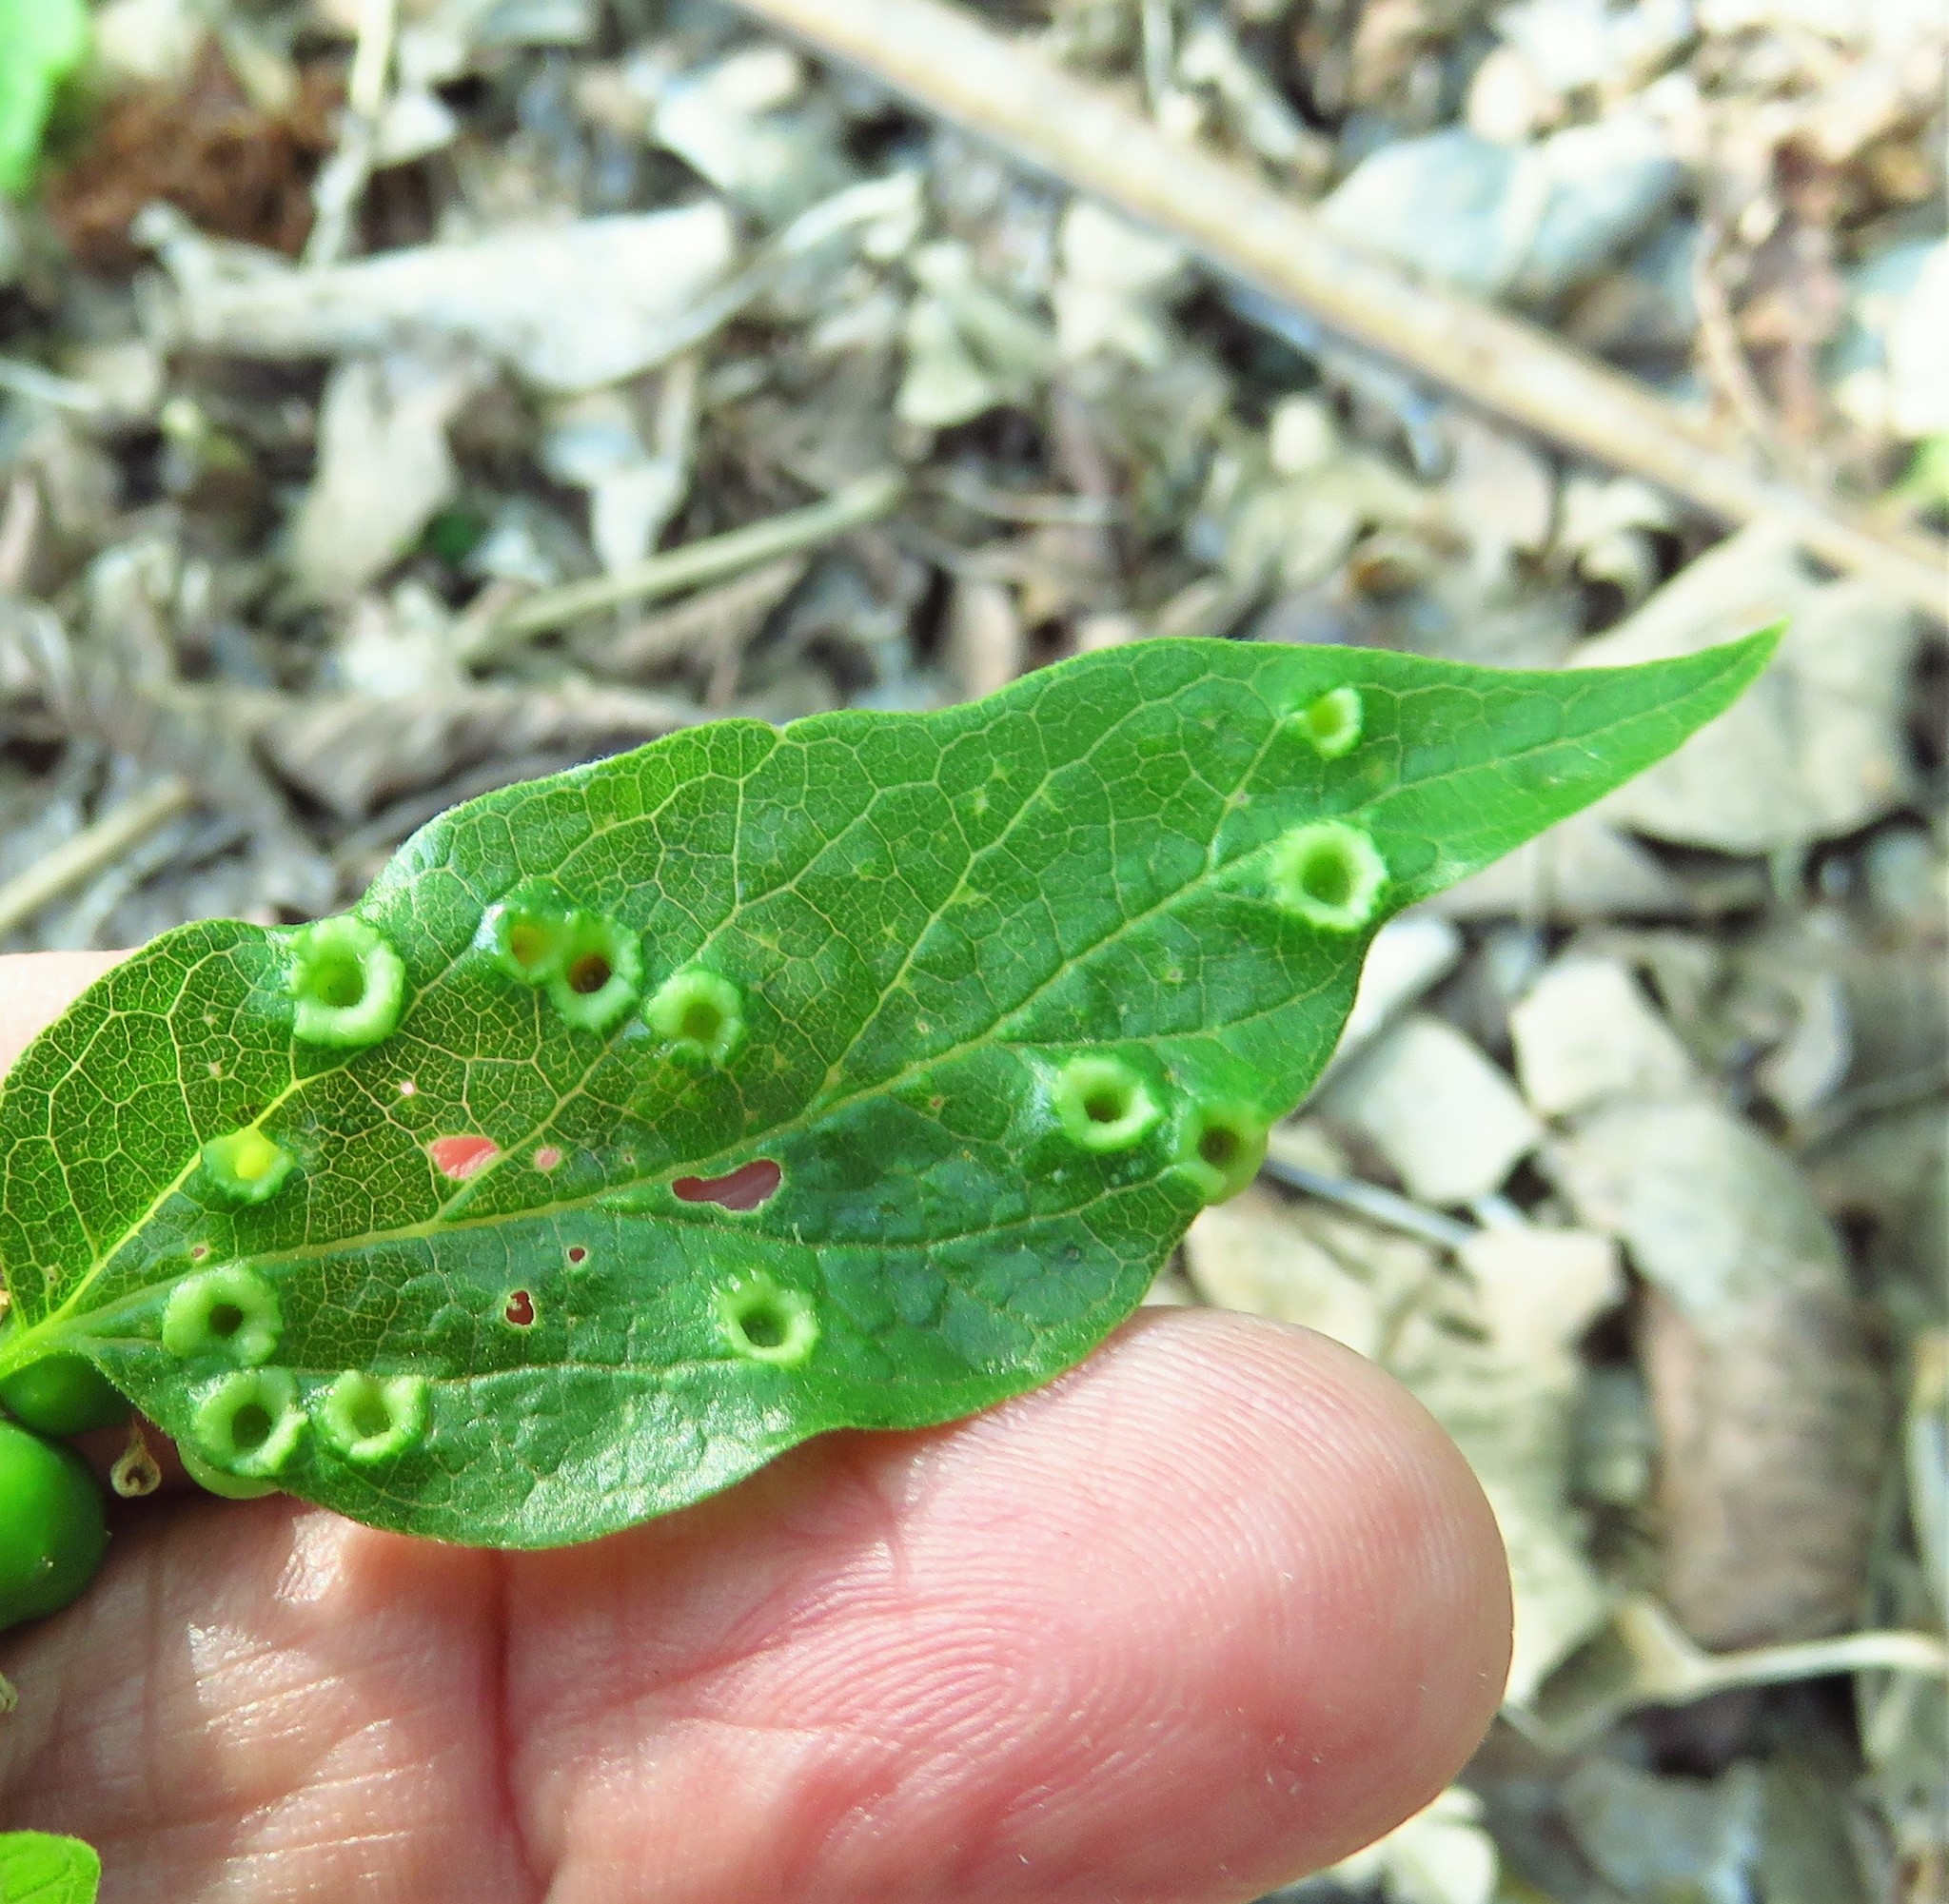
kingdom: Animalia
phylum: Arthropoda
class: Insecta
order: Hemiptera
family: Aphalaridae
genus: Pachypsylla
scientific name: Pachypsylla celtidismamma
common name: Hackberry nipplegall psyllid
